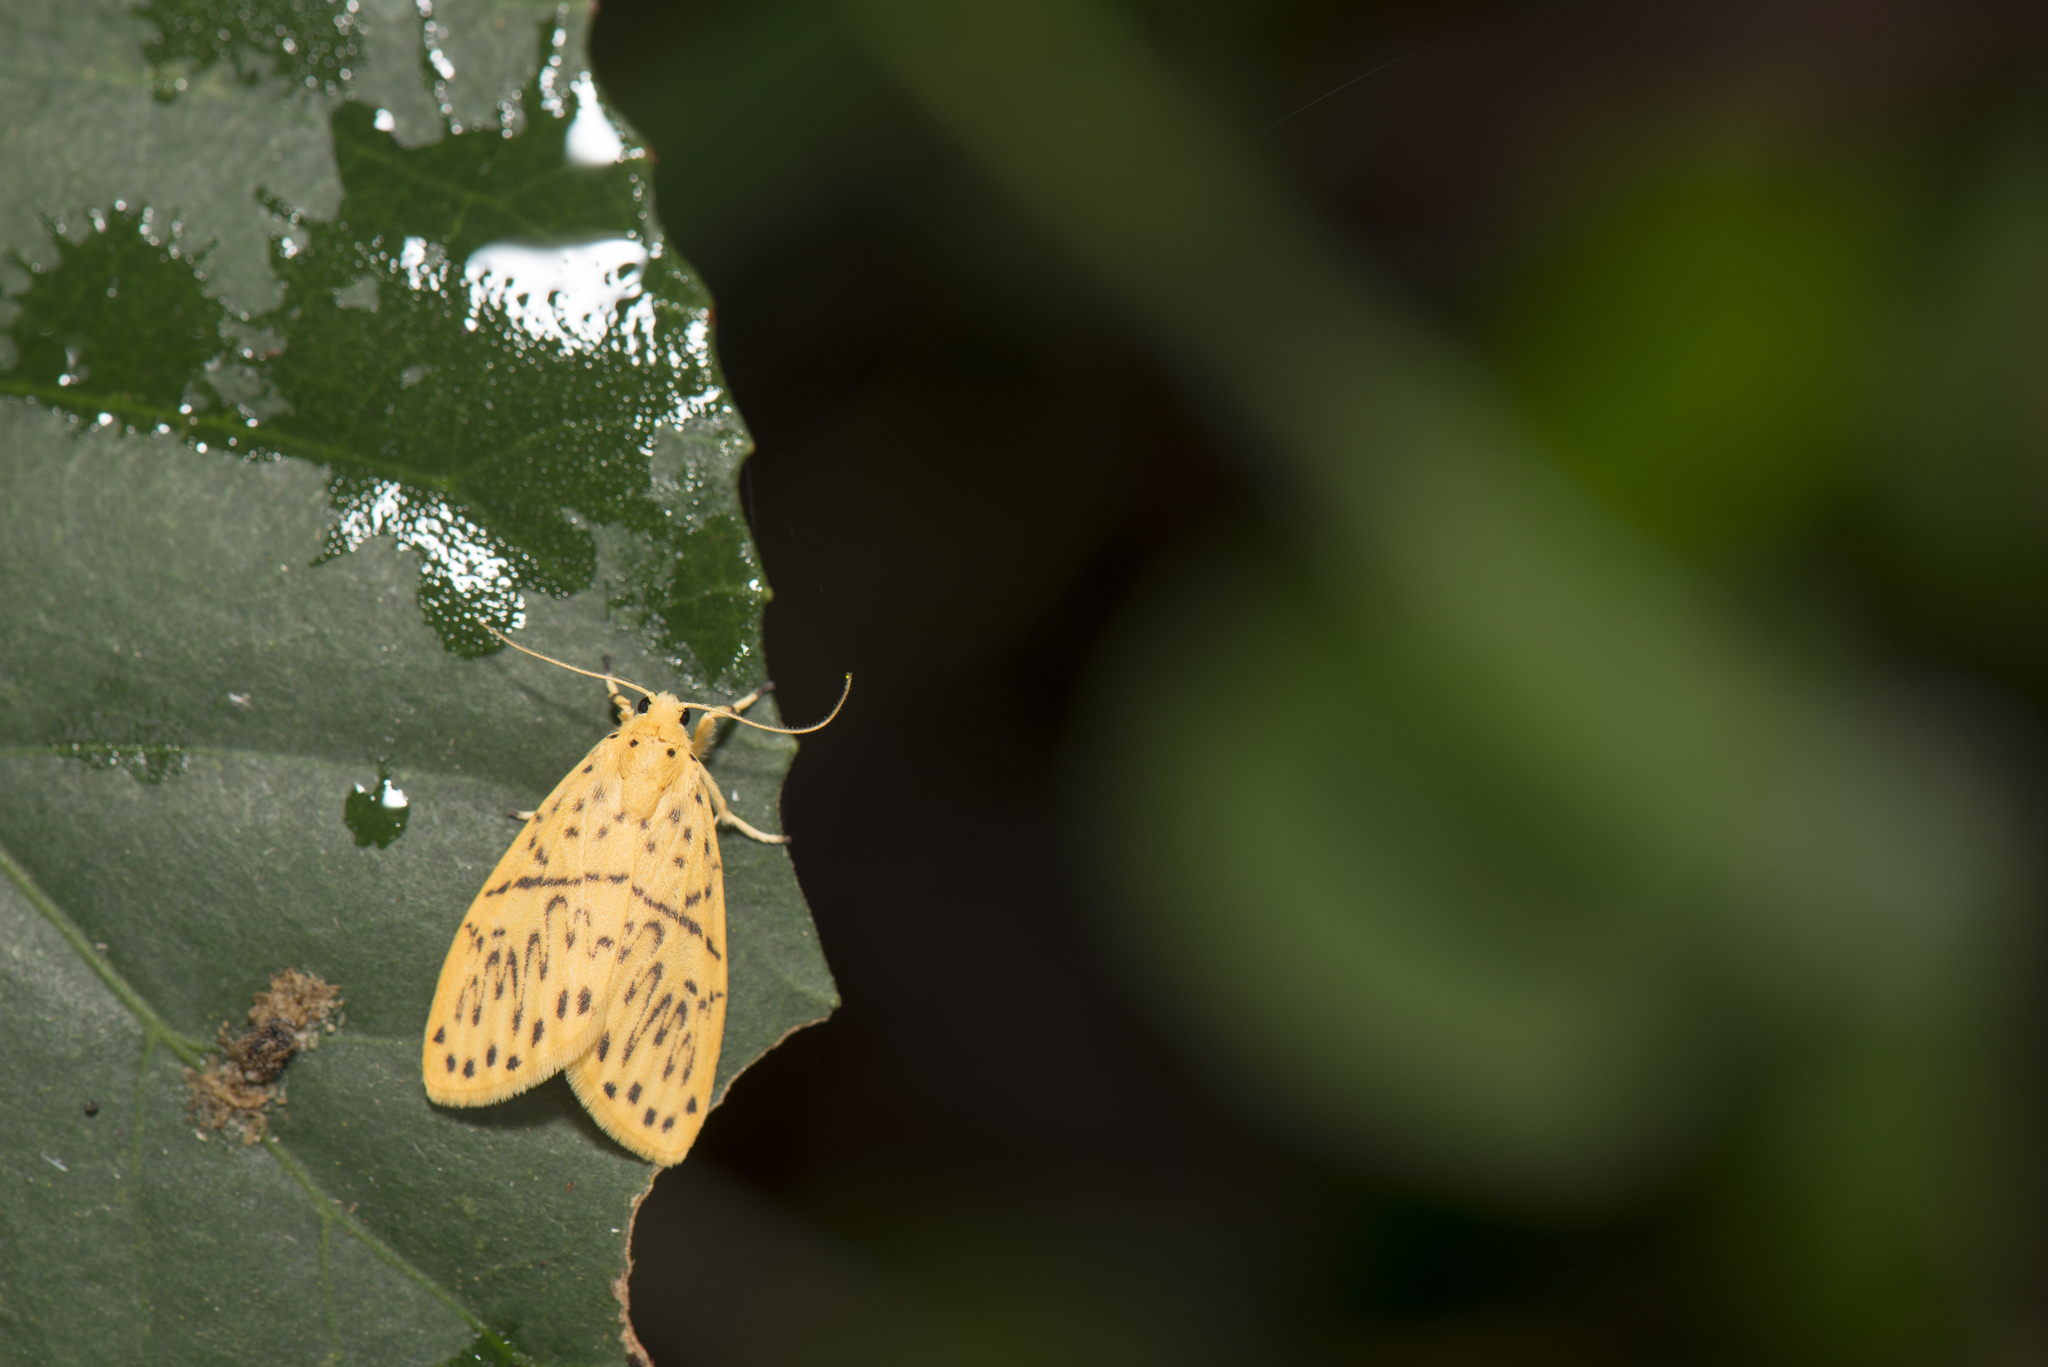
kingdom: Animalia
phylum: Arthropoda
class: Insecta
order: Lepidoptera
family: Erebidae
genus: Huangilene
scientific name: Huangilene alikangiae
